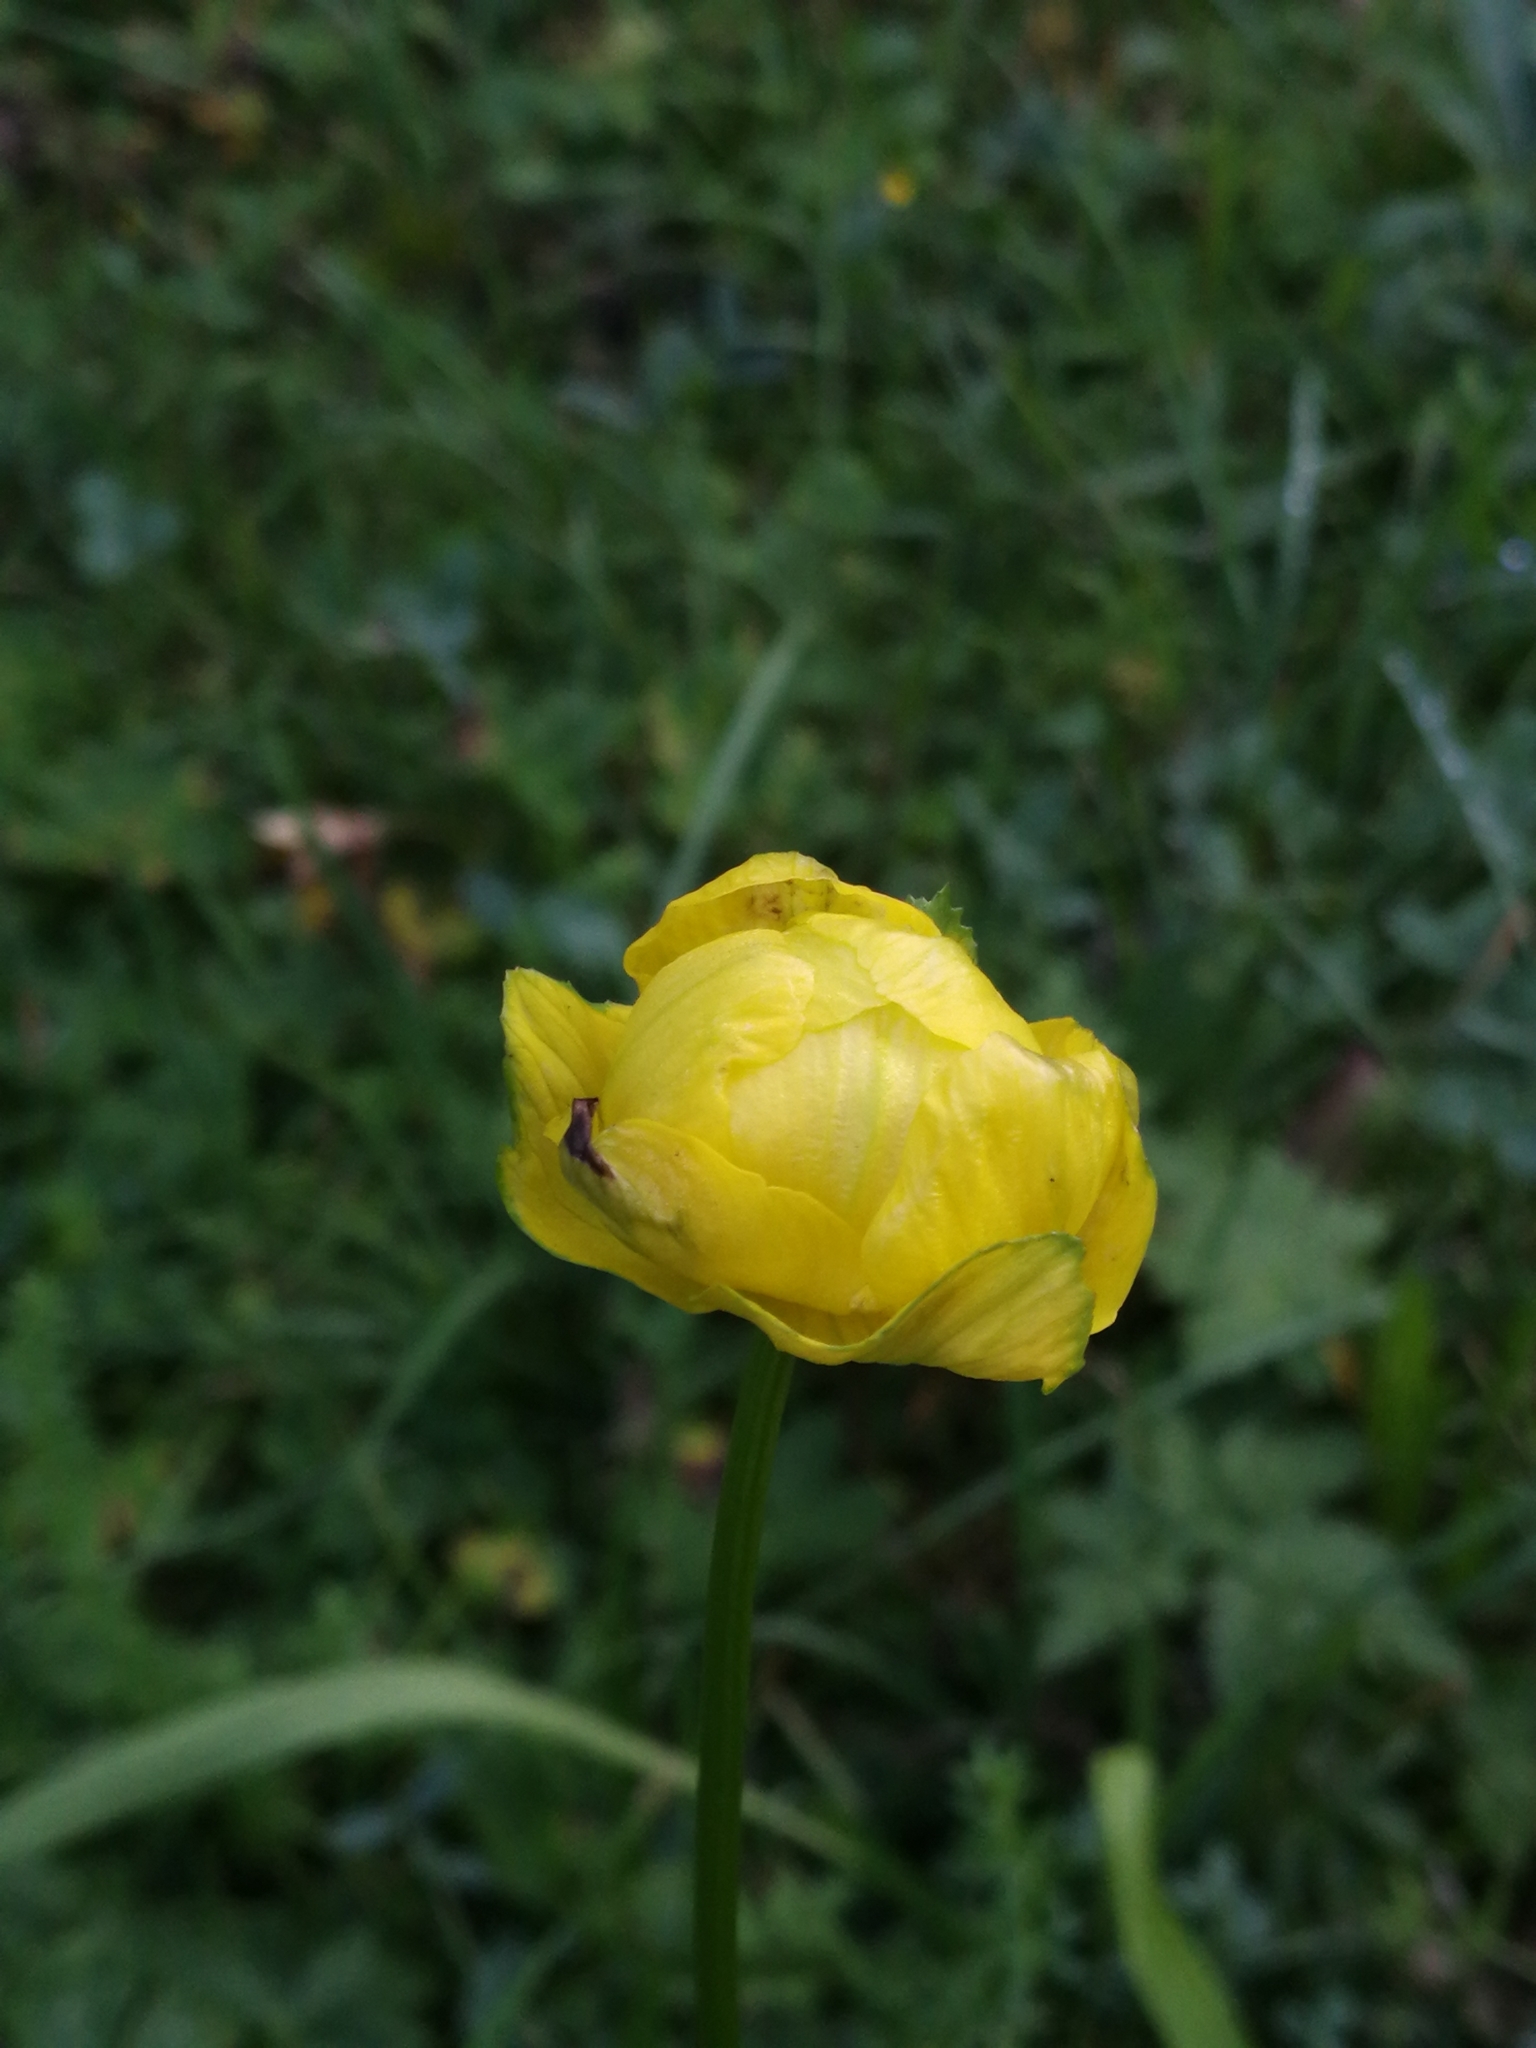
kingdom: Plantae
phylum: Tracheophyta
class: Magnoliopsida
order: Ranunculales
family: Ranunculaceae
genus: Trollius
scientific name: Trollius europaeus
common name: European globeflower
